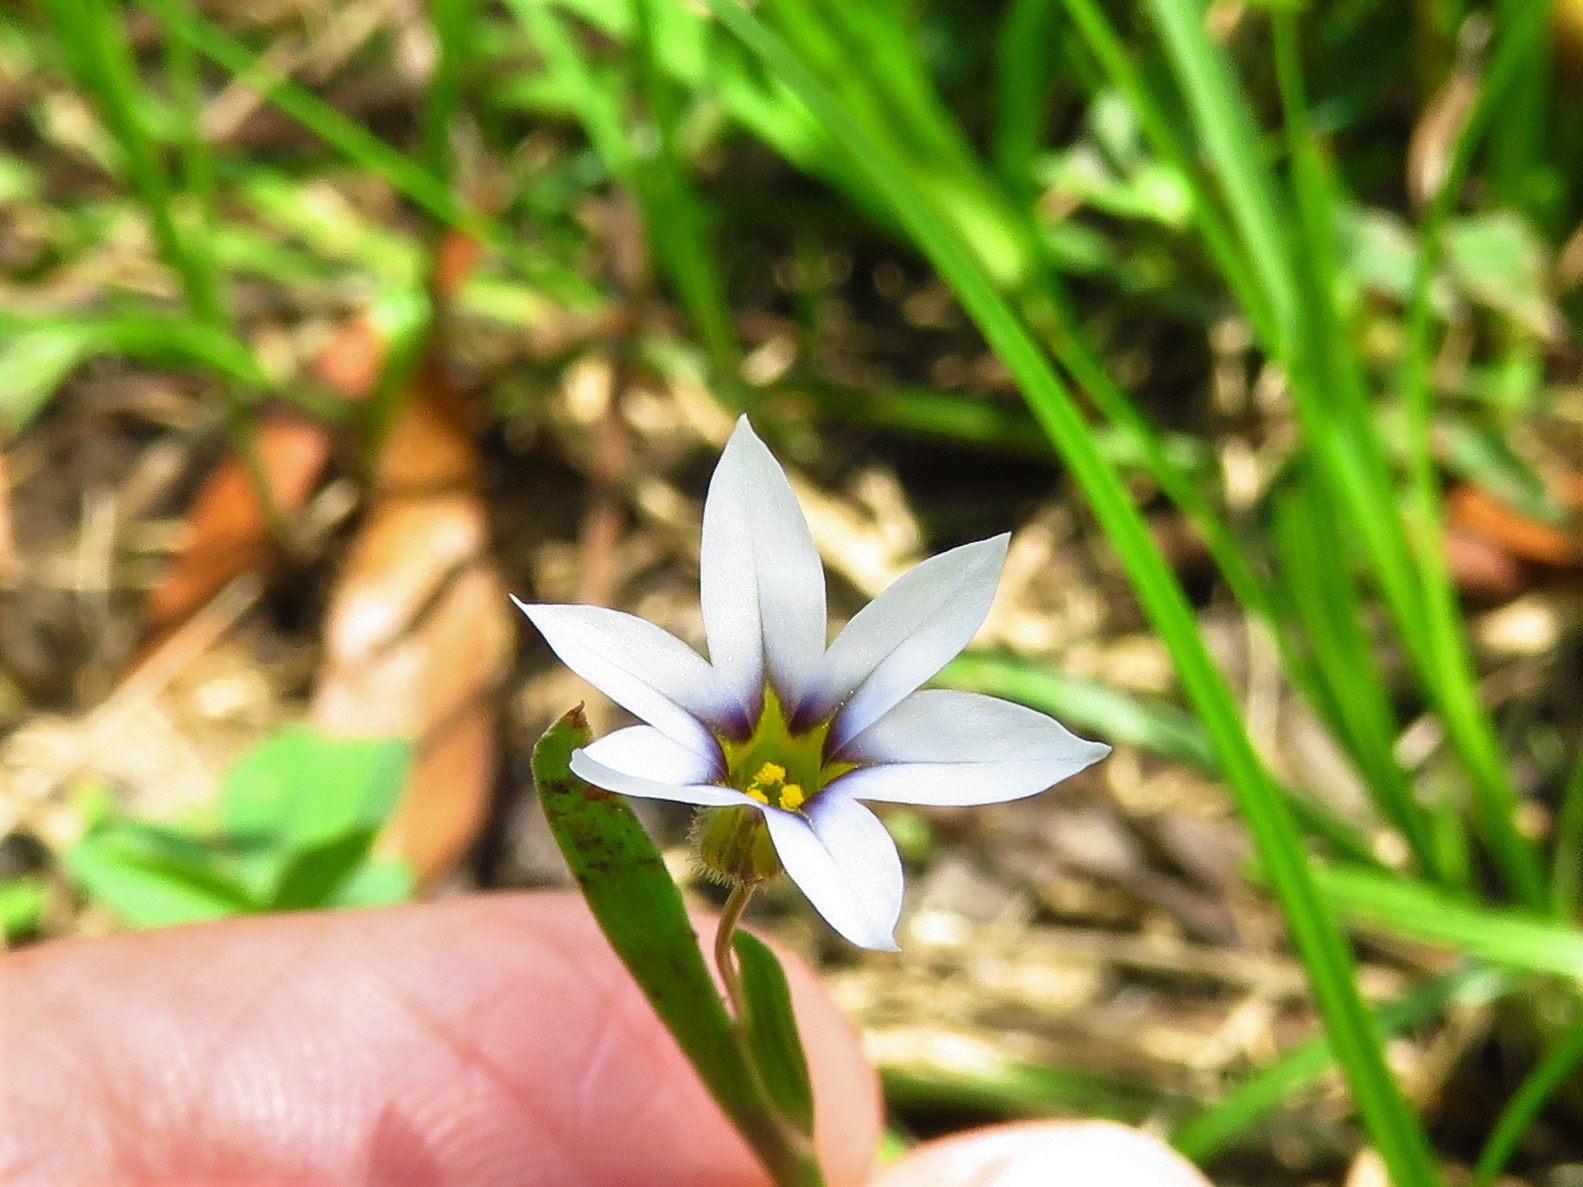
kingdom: Plantae
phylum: Tracheophyta
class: Liliopsida
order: Asparagales
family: Iridaceae
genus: Sisyrinchium
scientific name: Sisyrinchium micranthum
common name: Bermuda pigroot
